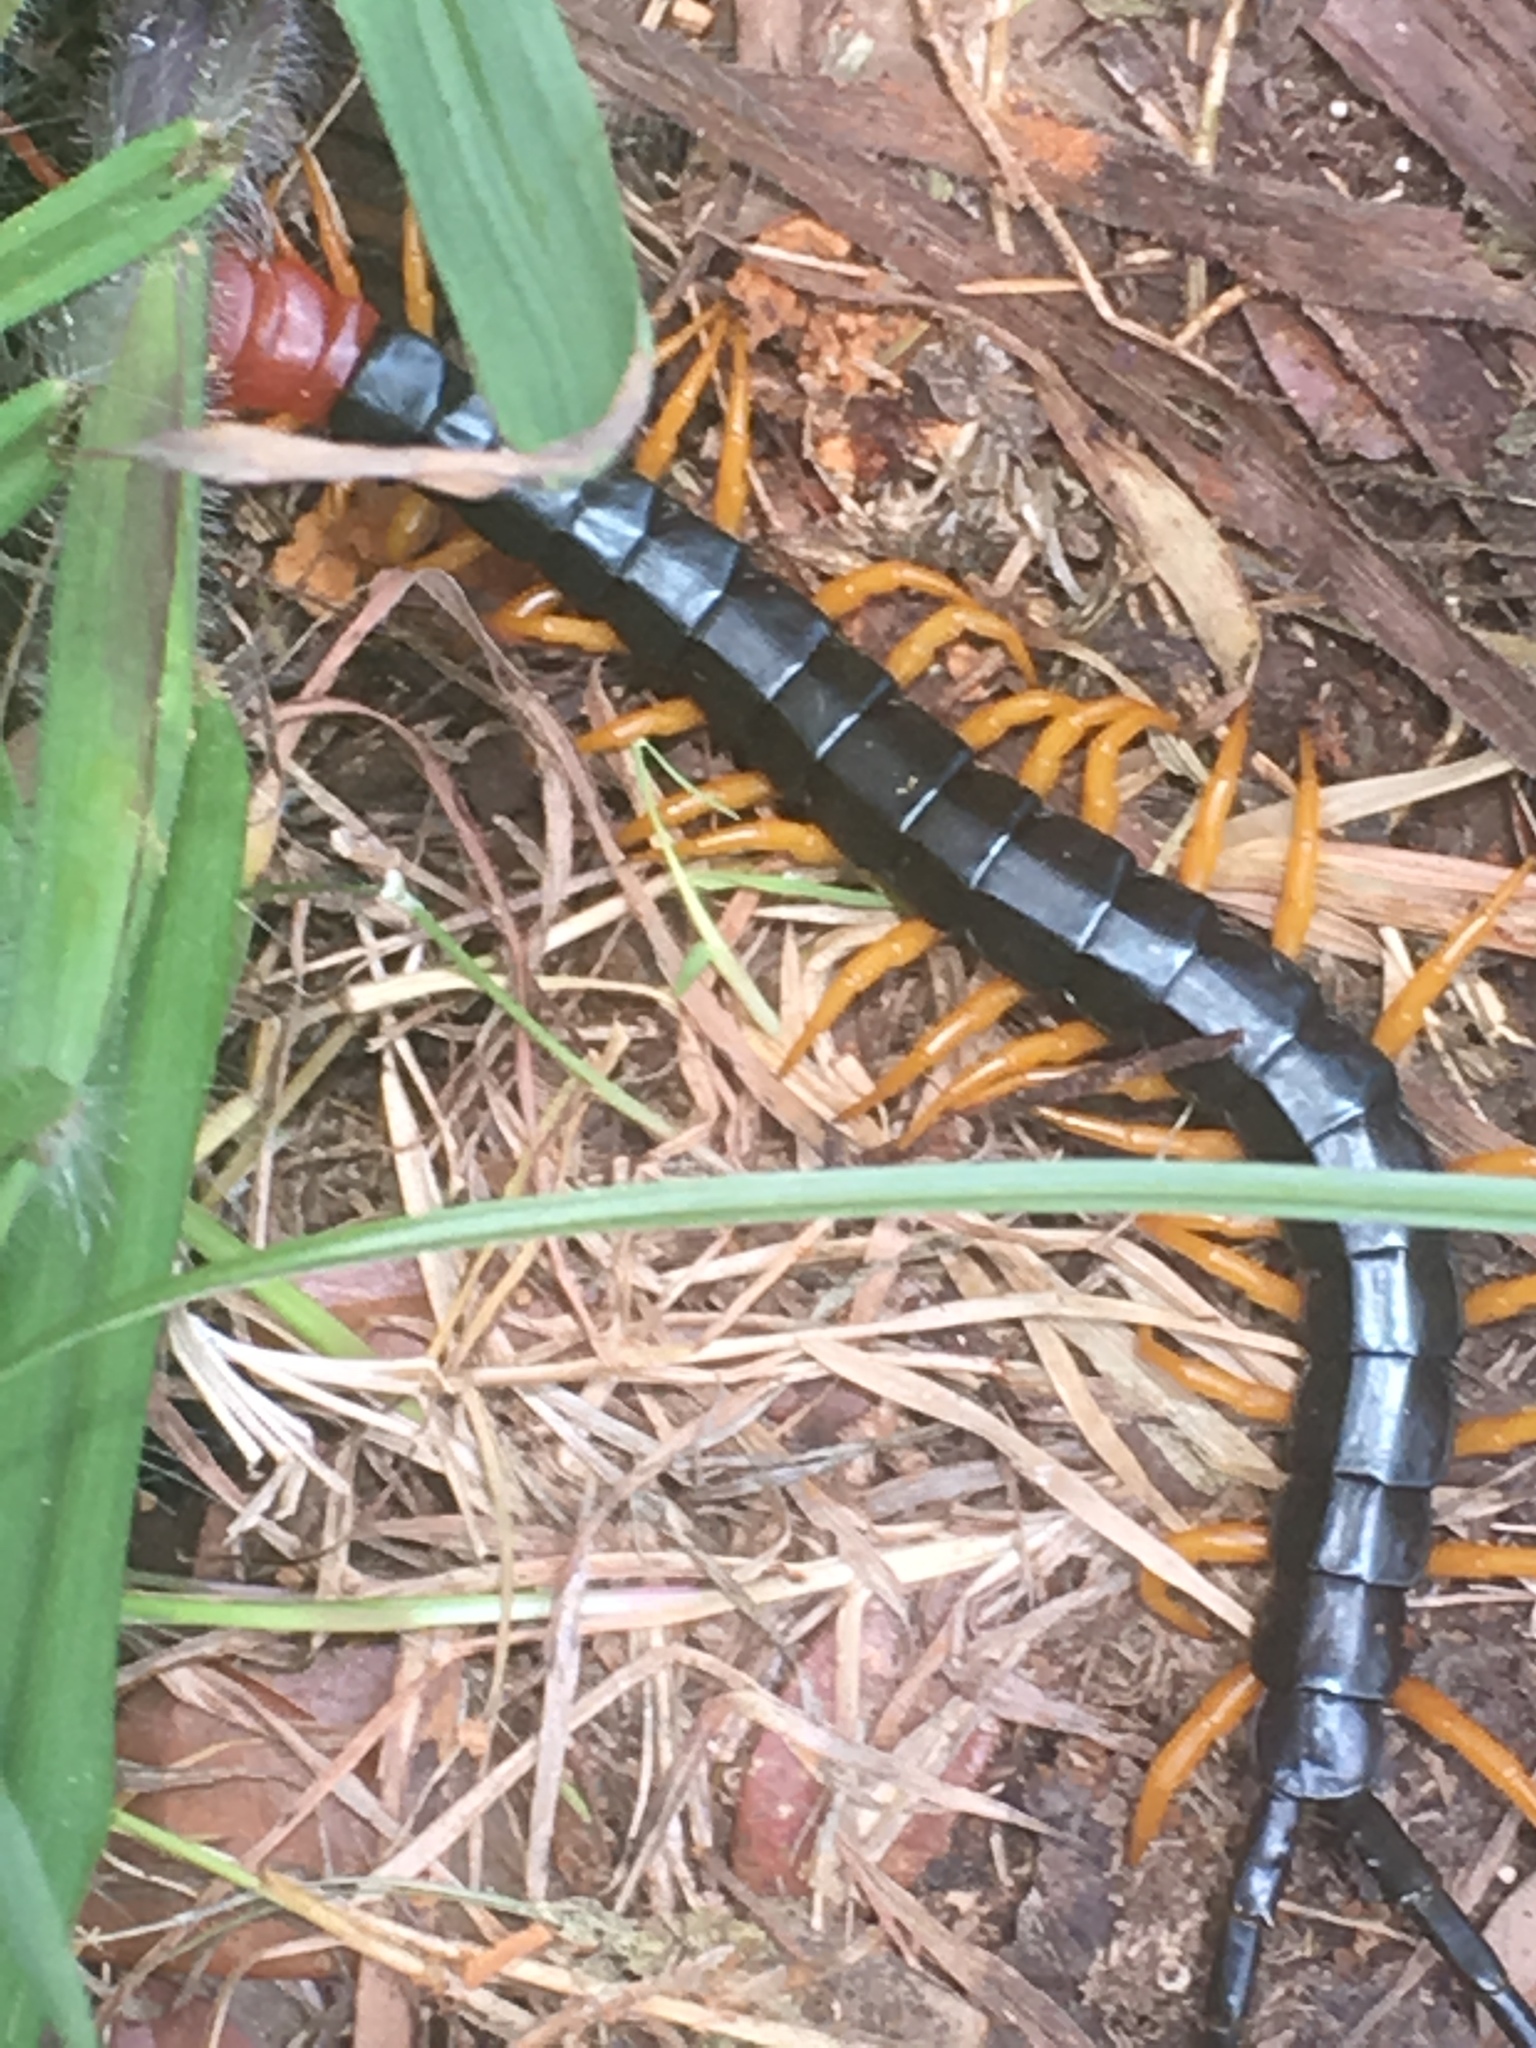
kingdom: Animalia
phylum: Arthropoda
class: Chilopoda
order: Scolopendromorpha
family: Scolopendridae
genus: Scolopendra
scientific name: Scolopendra heros
